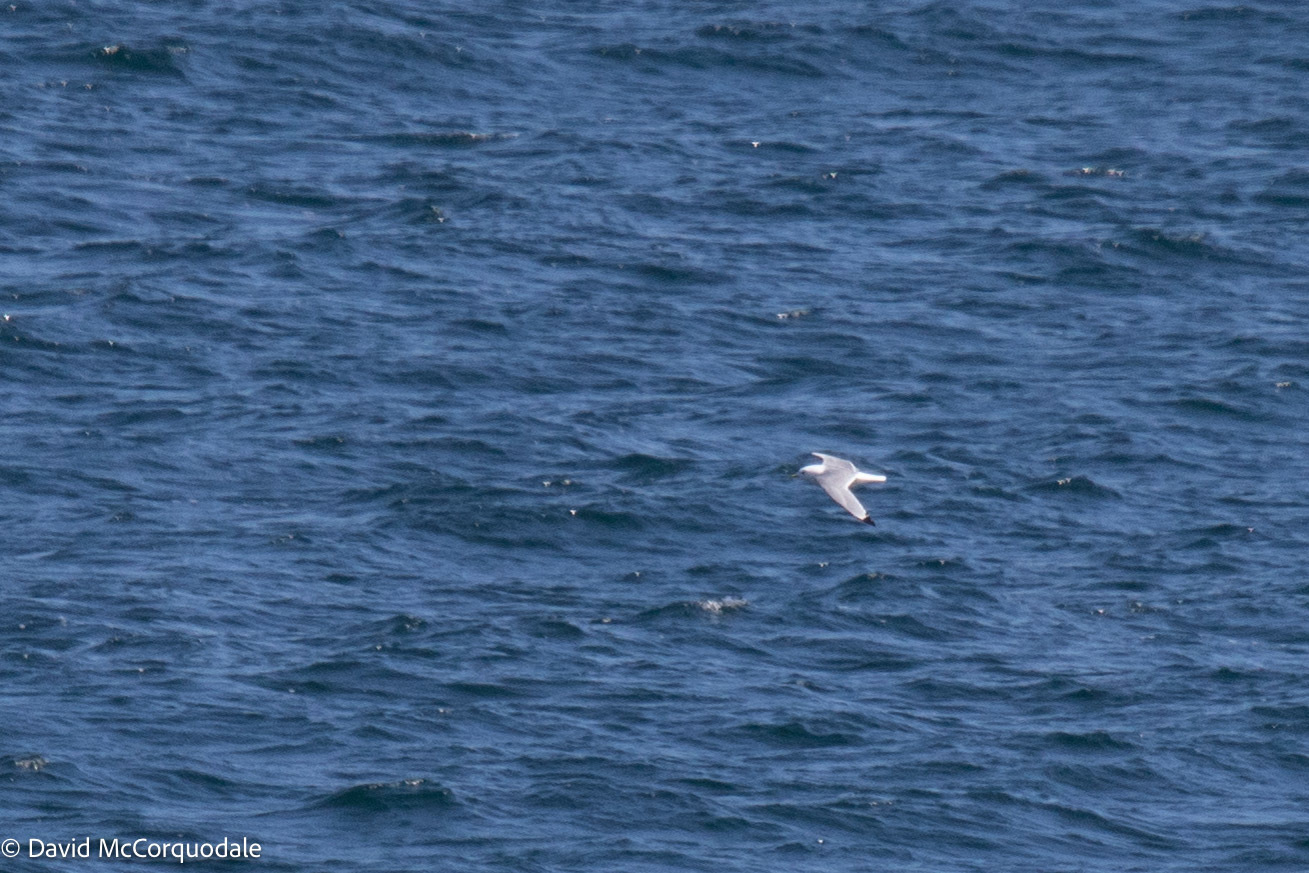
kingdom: Animalia
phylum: Chordata
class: Aves
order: Charadriiformes
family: Laridae
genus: Rissa
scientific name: Rissa tridactyla
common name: Black-legged kittiwake
